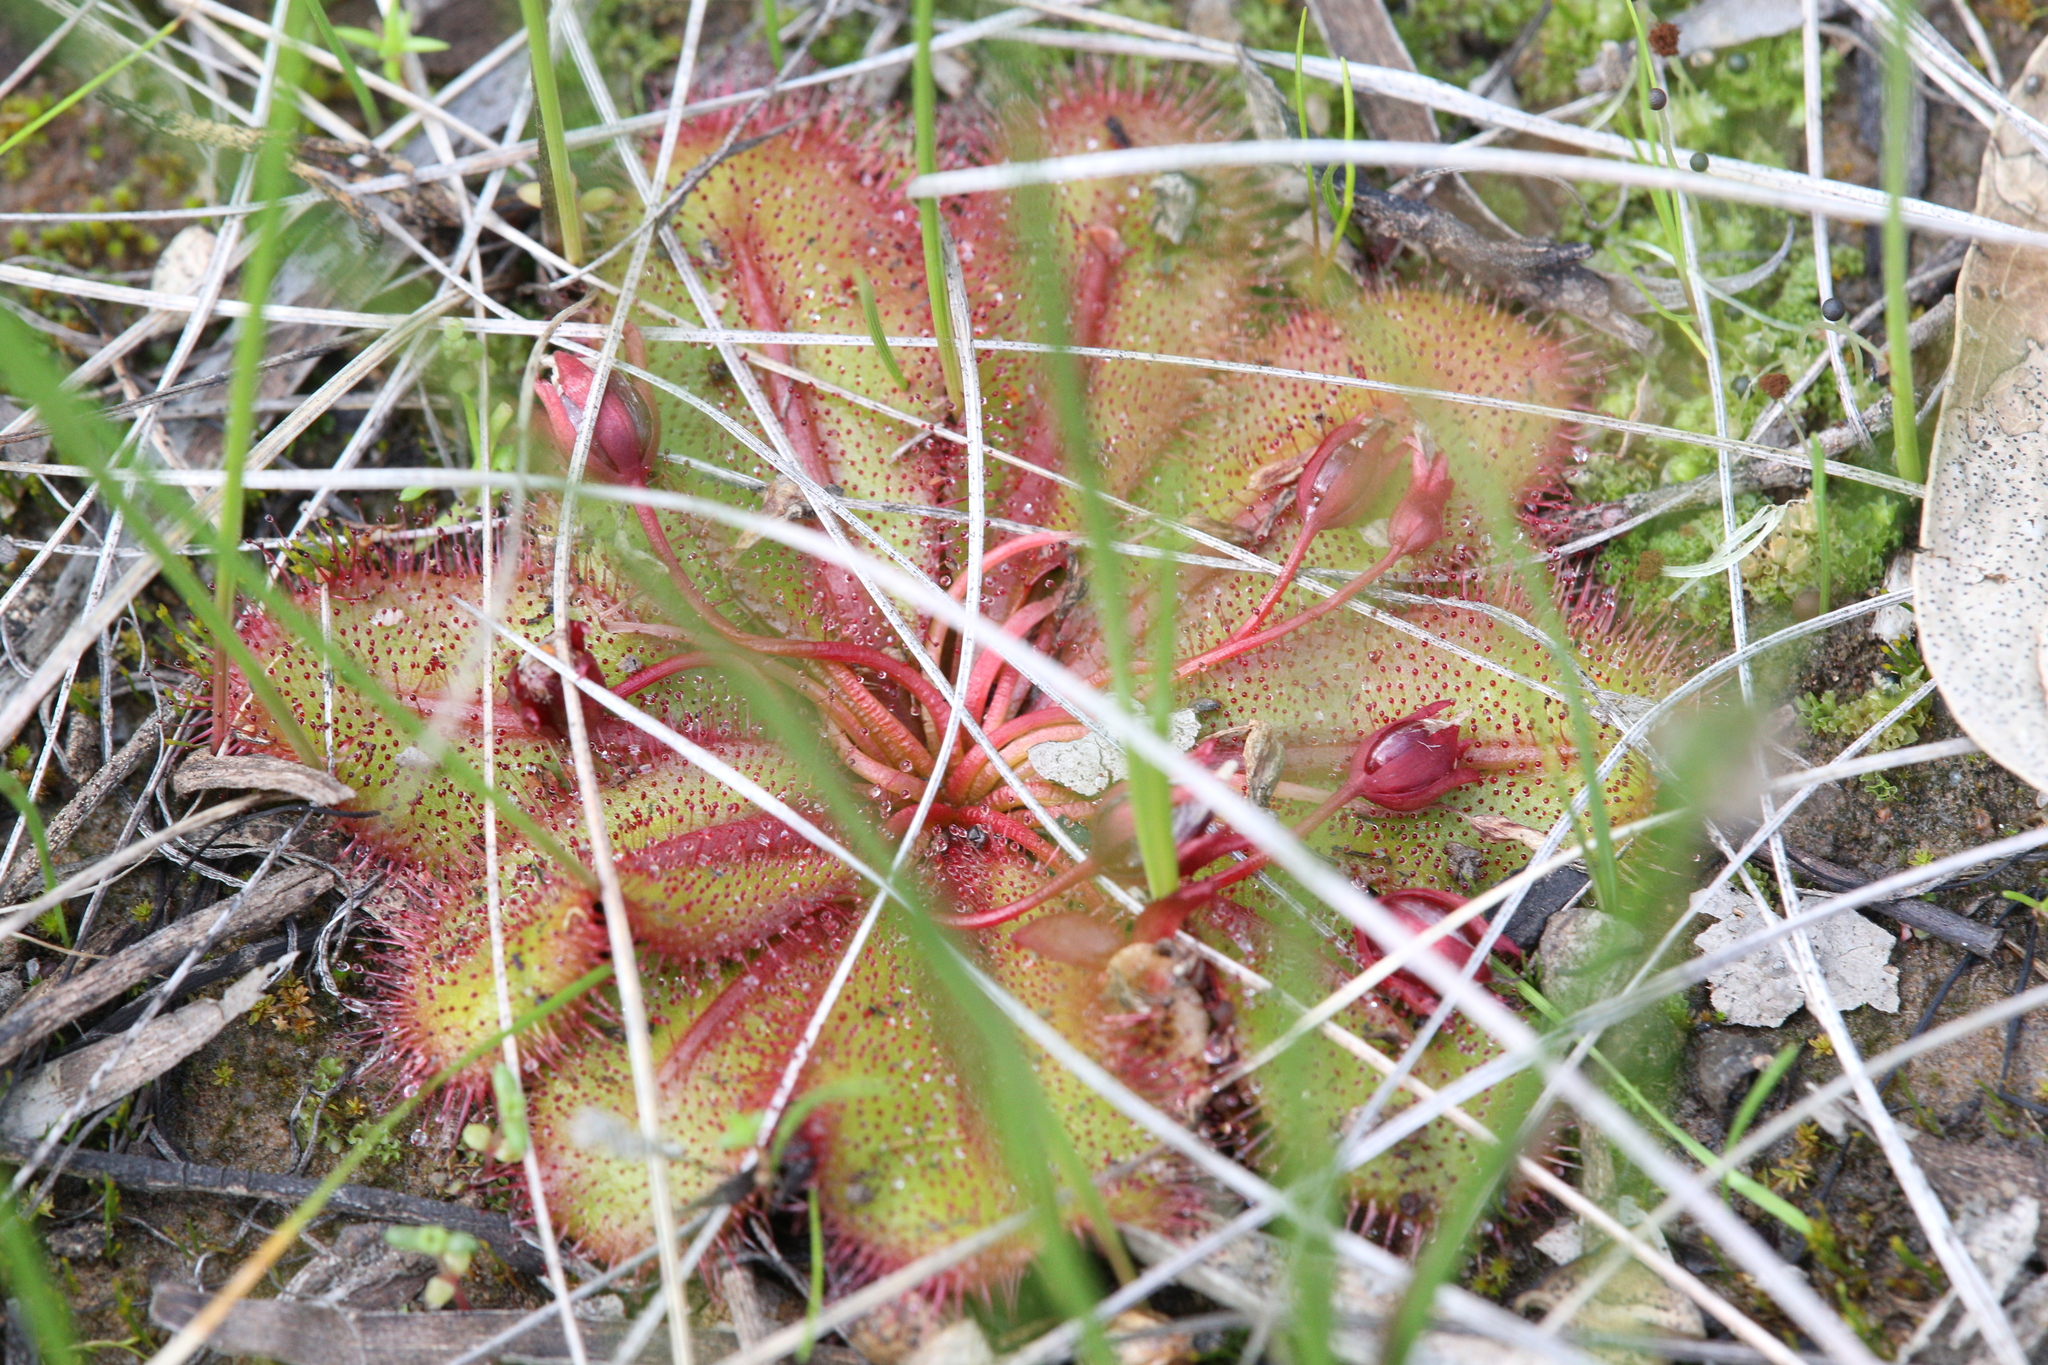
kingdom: Plantae
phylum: Tracheophyta
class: Magnoliopsida
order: Caryophyllales
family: Droseraceae
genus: Drosera
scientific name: Drosera bulbosa
